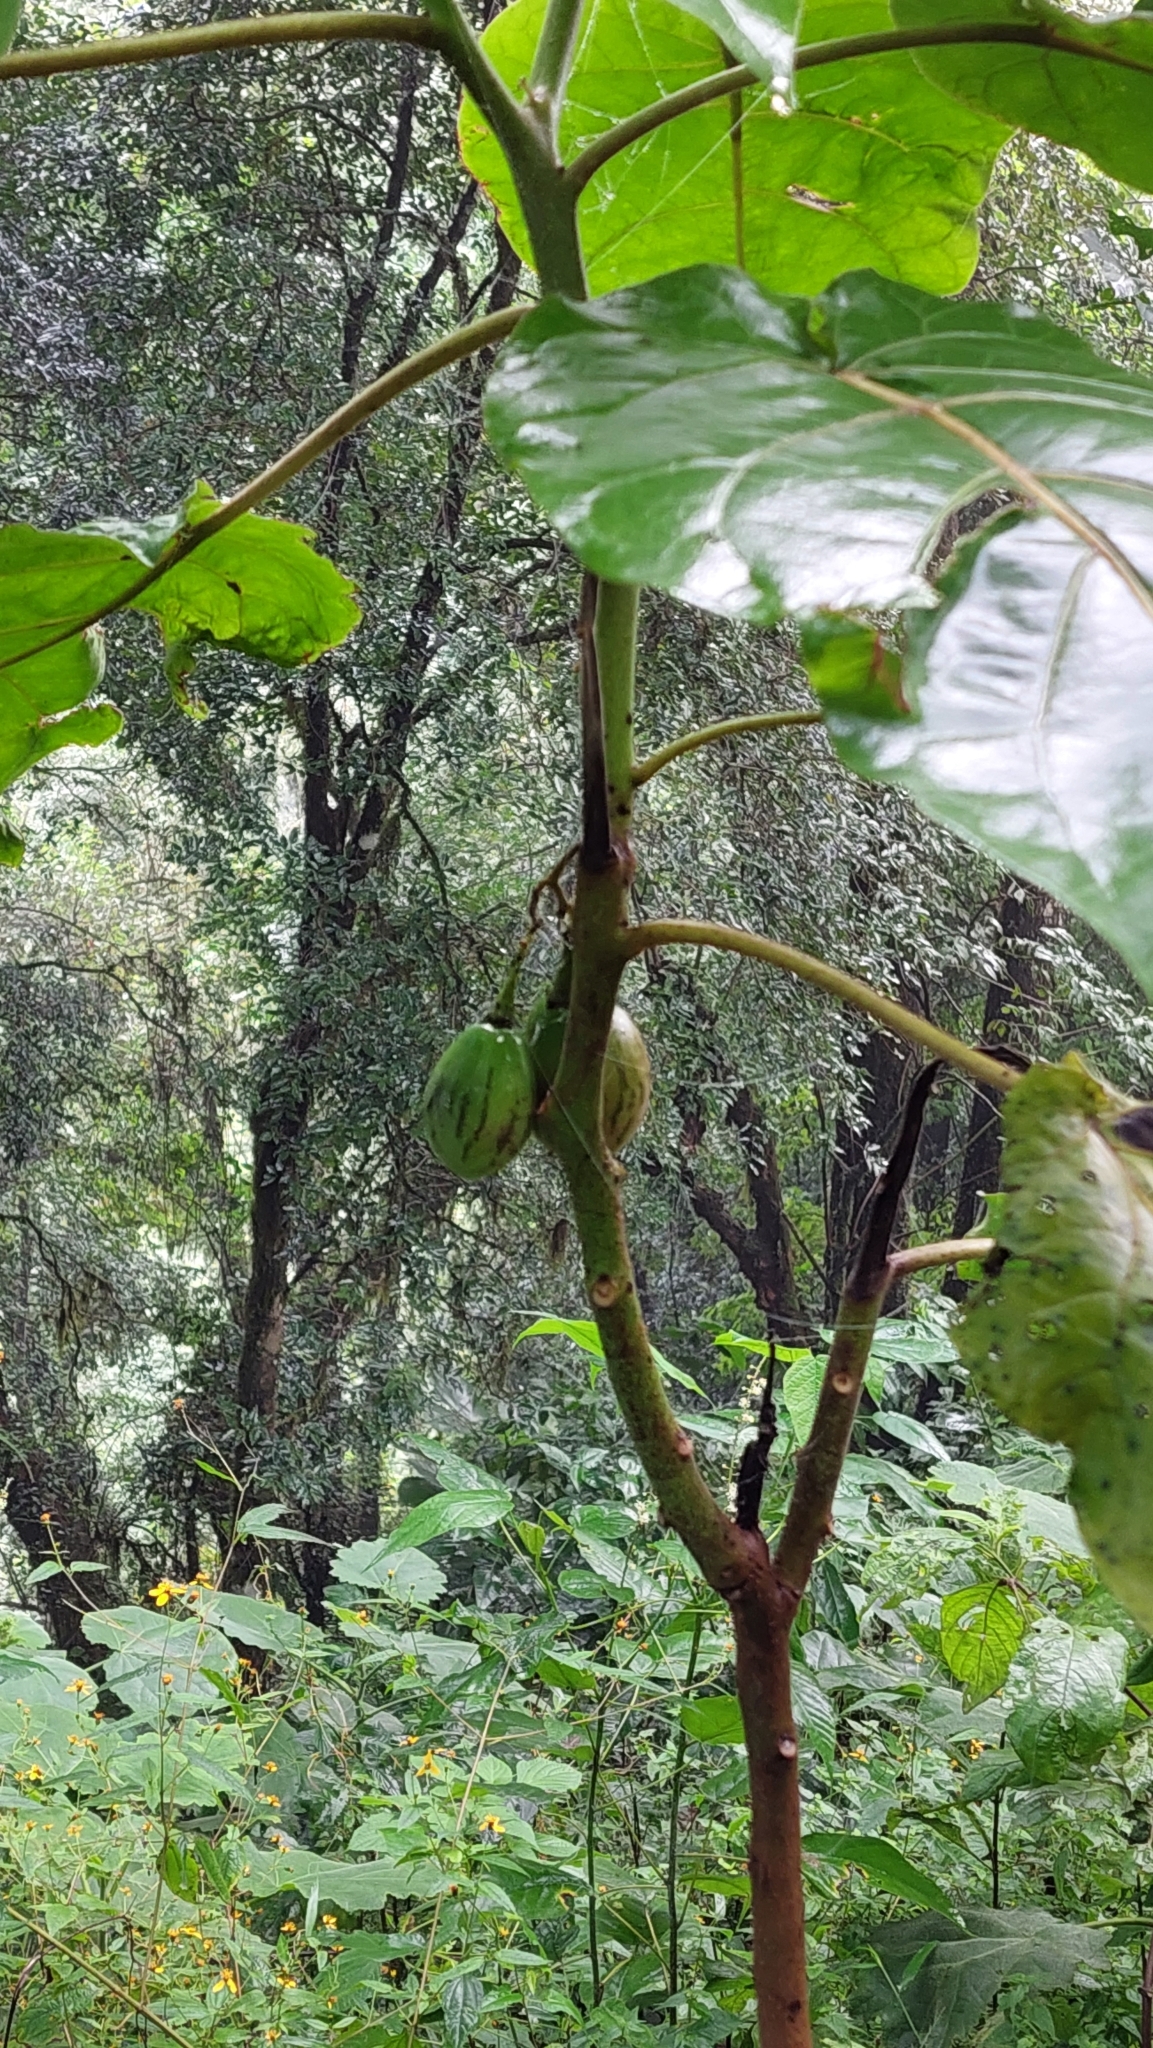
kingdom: Plantae
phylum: Tracheophyta
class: Magnoliopsida
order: Solanales
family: Solanaceae
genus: Solanum
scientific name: Solanum betaceum
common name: Tamarillo
